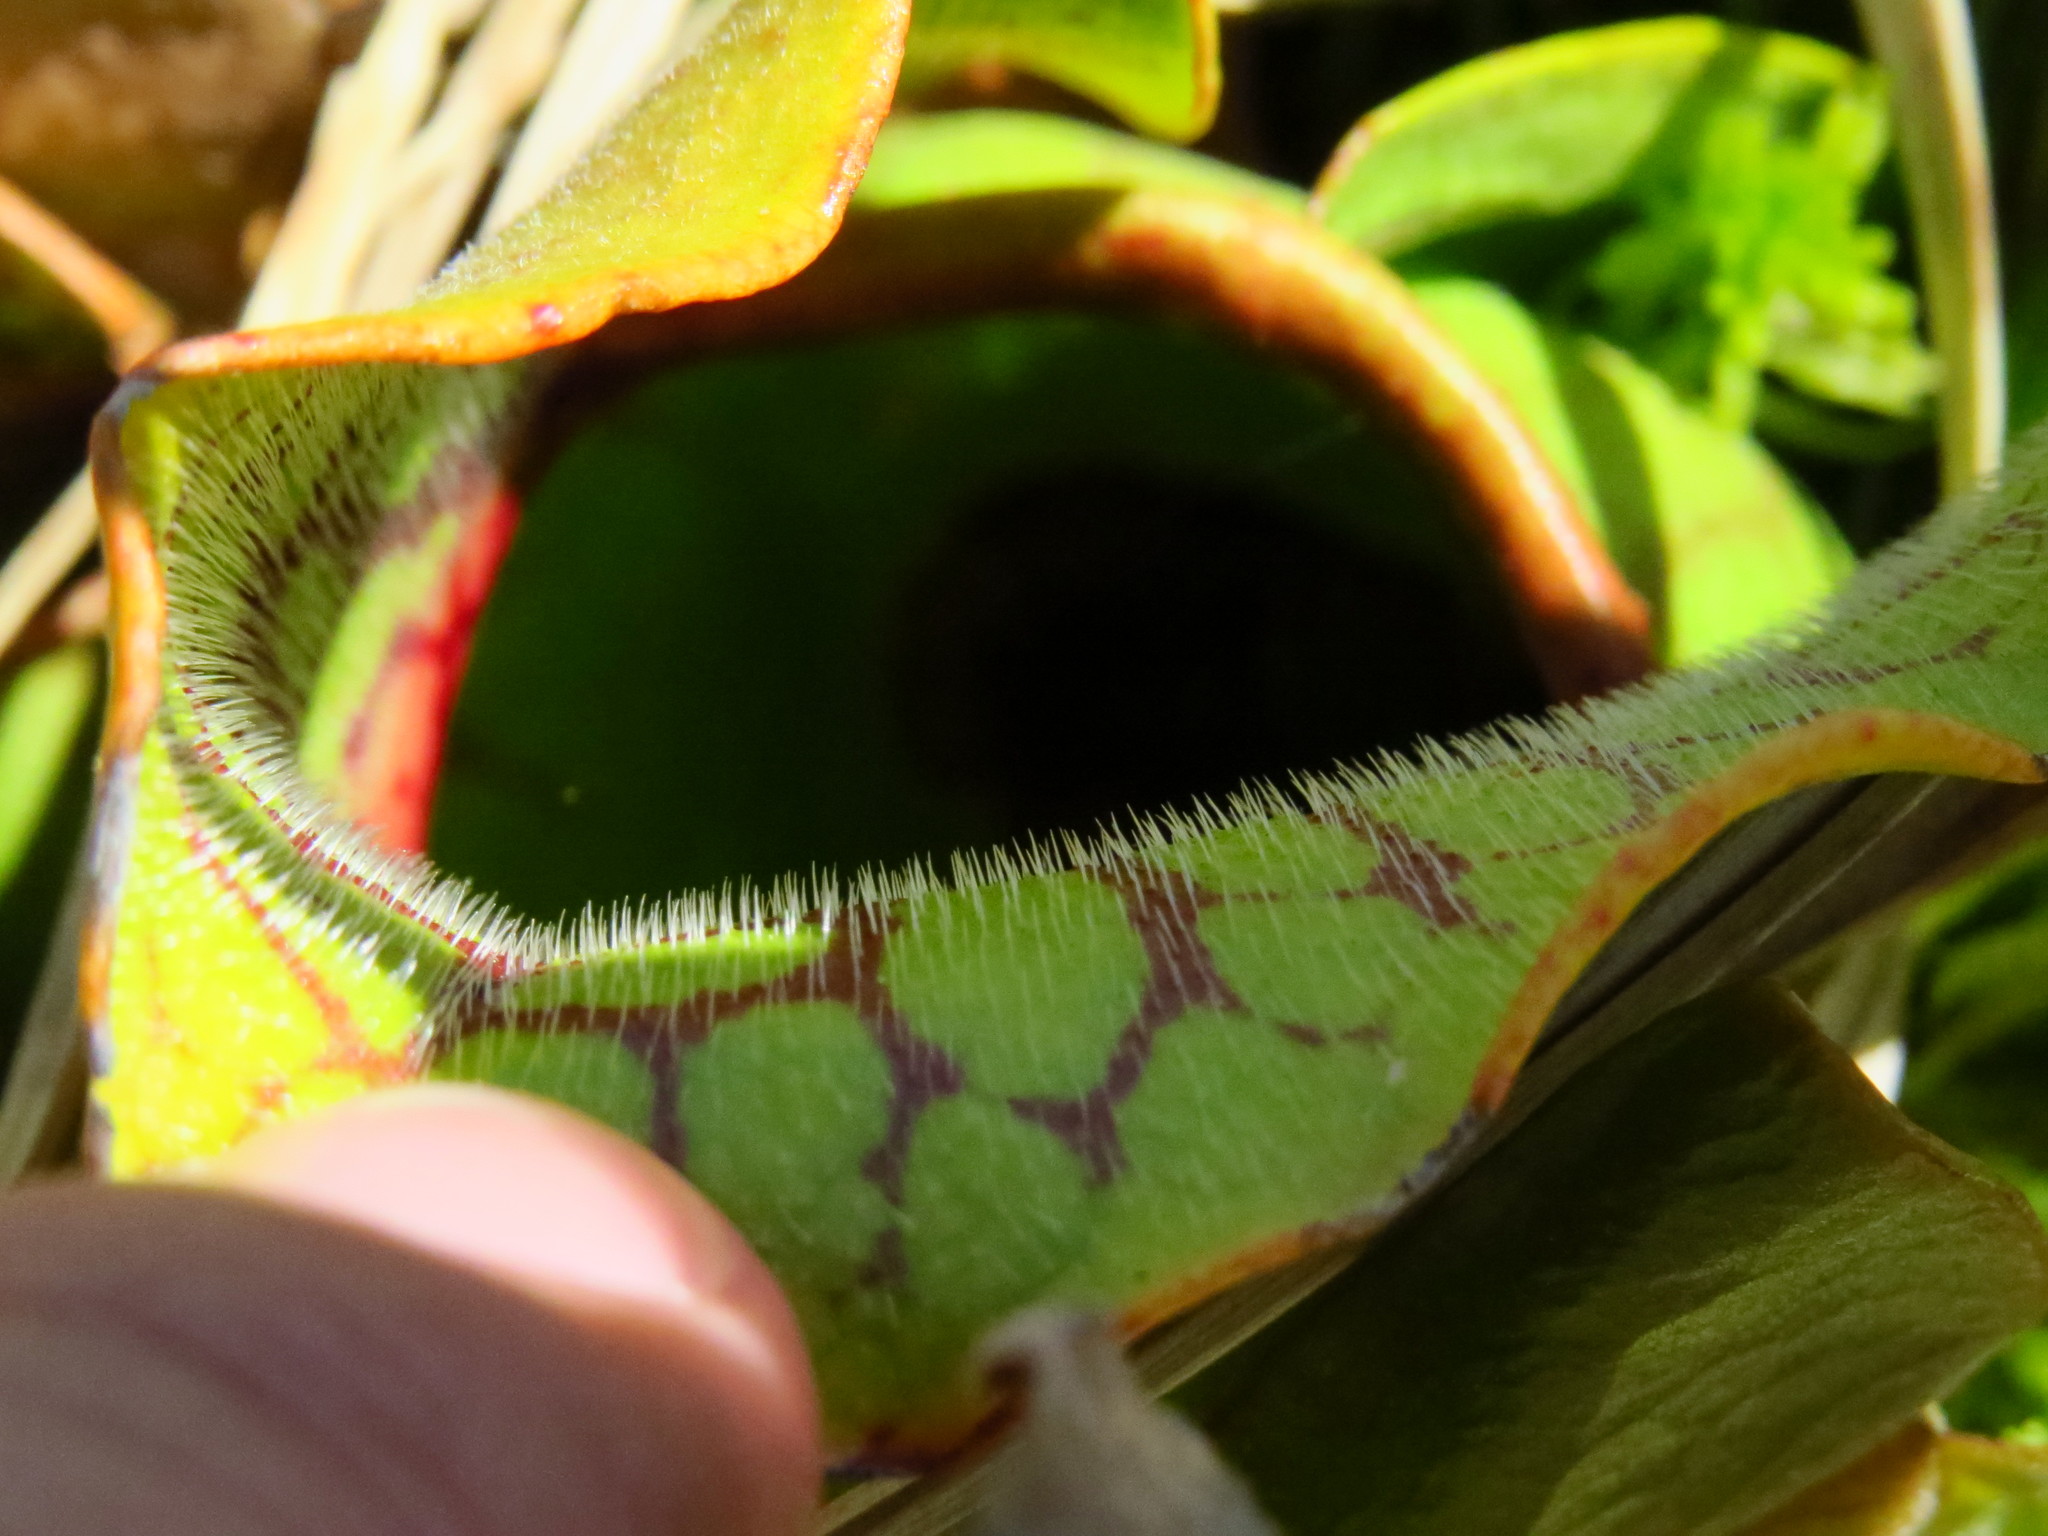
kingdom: Plantae
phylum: Tracheophyta
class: Magnoliopsida
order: Ericales
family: Sarraceniaceae
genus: Sarracenia
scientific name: Sarracenia purpurea
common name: Pitcherplant
